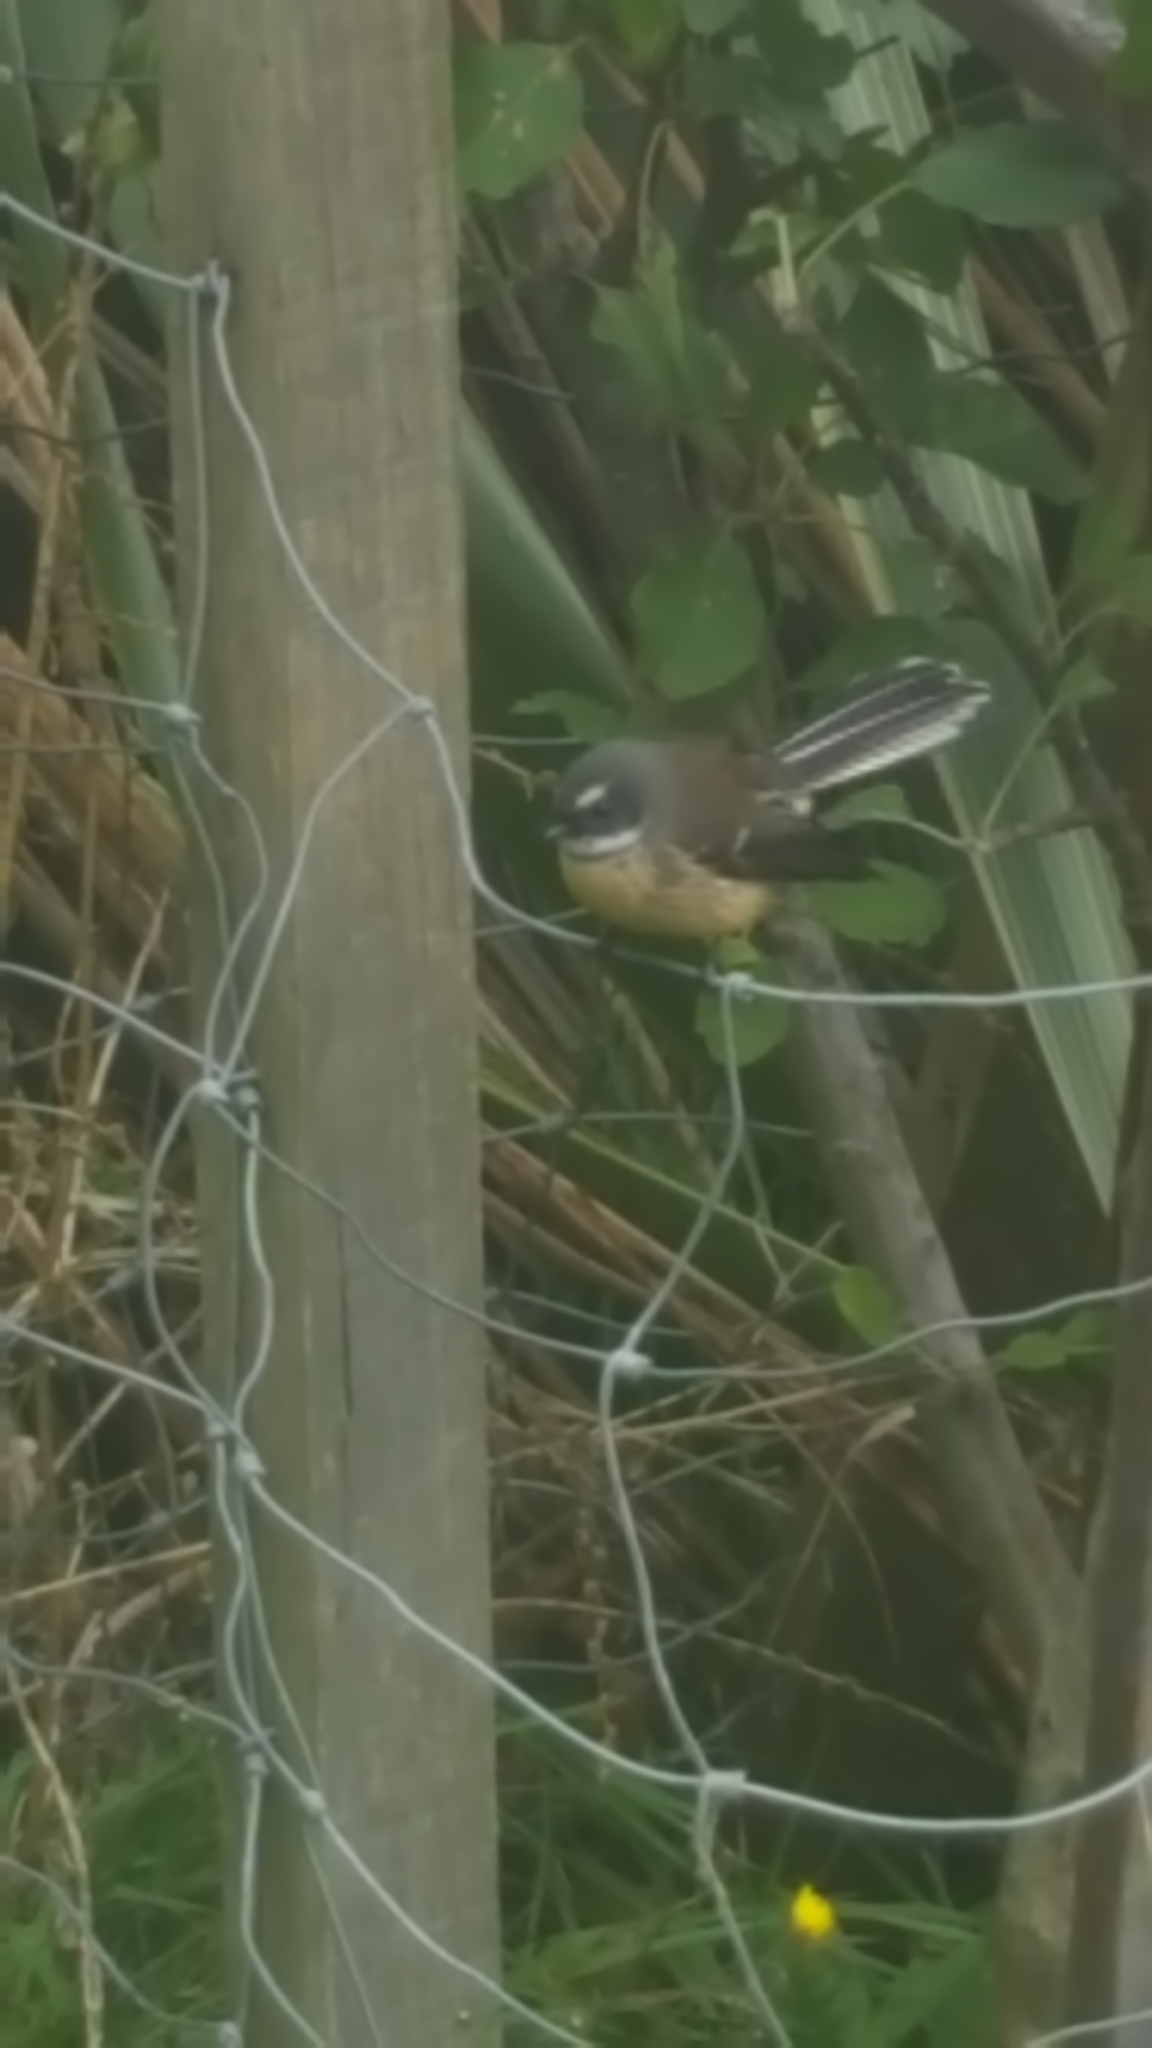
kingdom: Animalia
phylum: Chordata
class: Aves
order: Passeriformes
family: Rhipiduridae
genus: Rhipidura
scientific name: Rhipidura fuliginosa
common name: New zealand fantail
